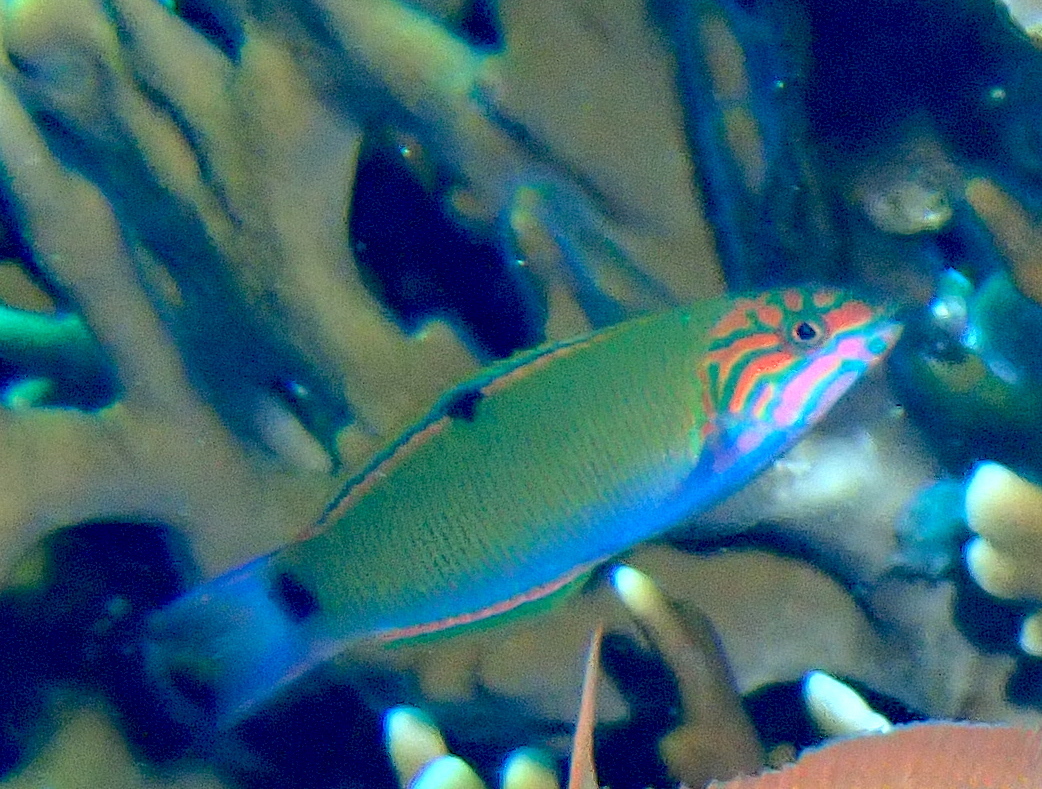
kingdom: Animalia
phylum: Chordata
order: Perciformes
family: Labridae
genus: Thalassoma
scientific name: Thalassoma lunare
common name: Blue wrasse
